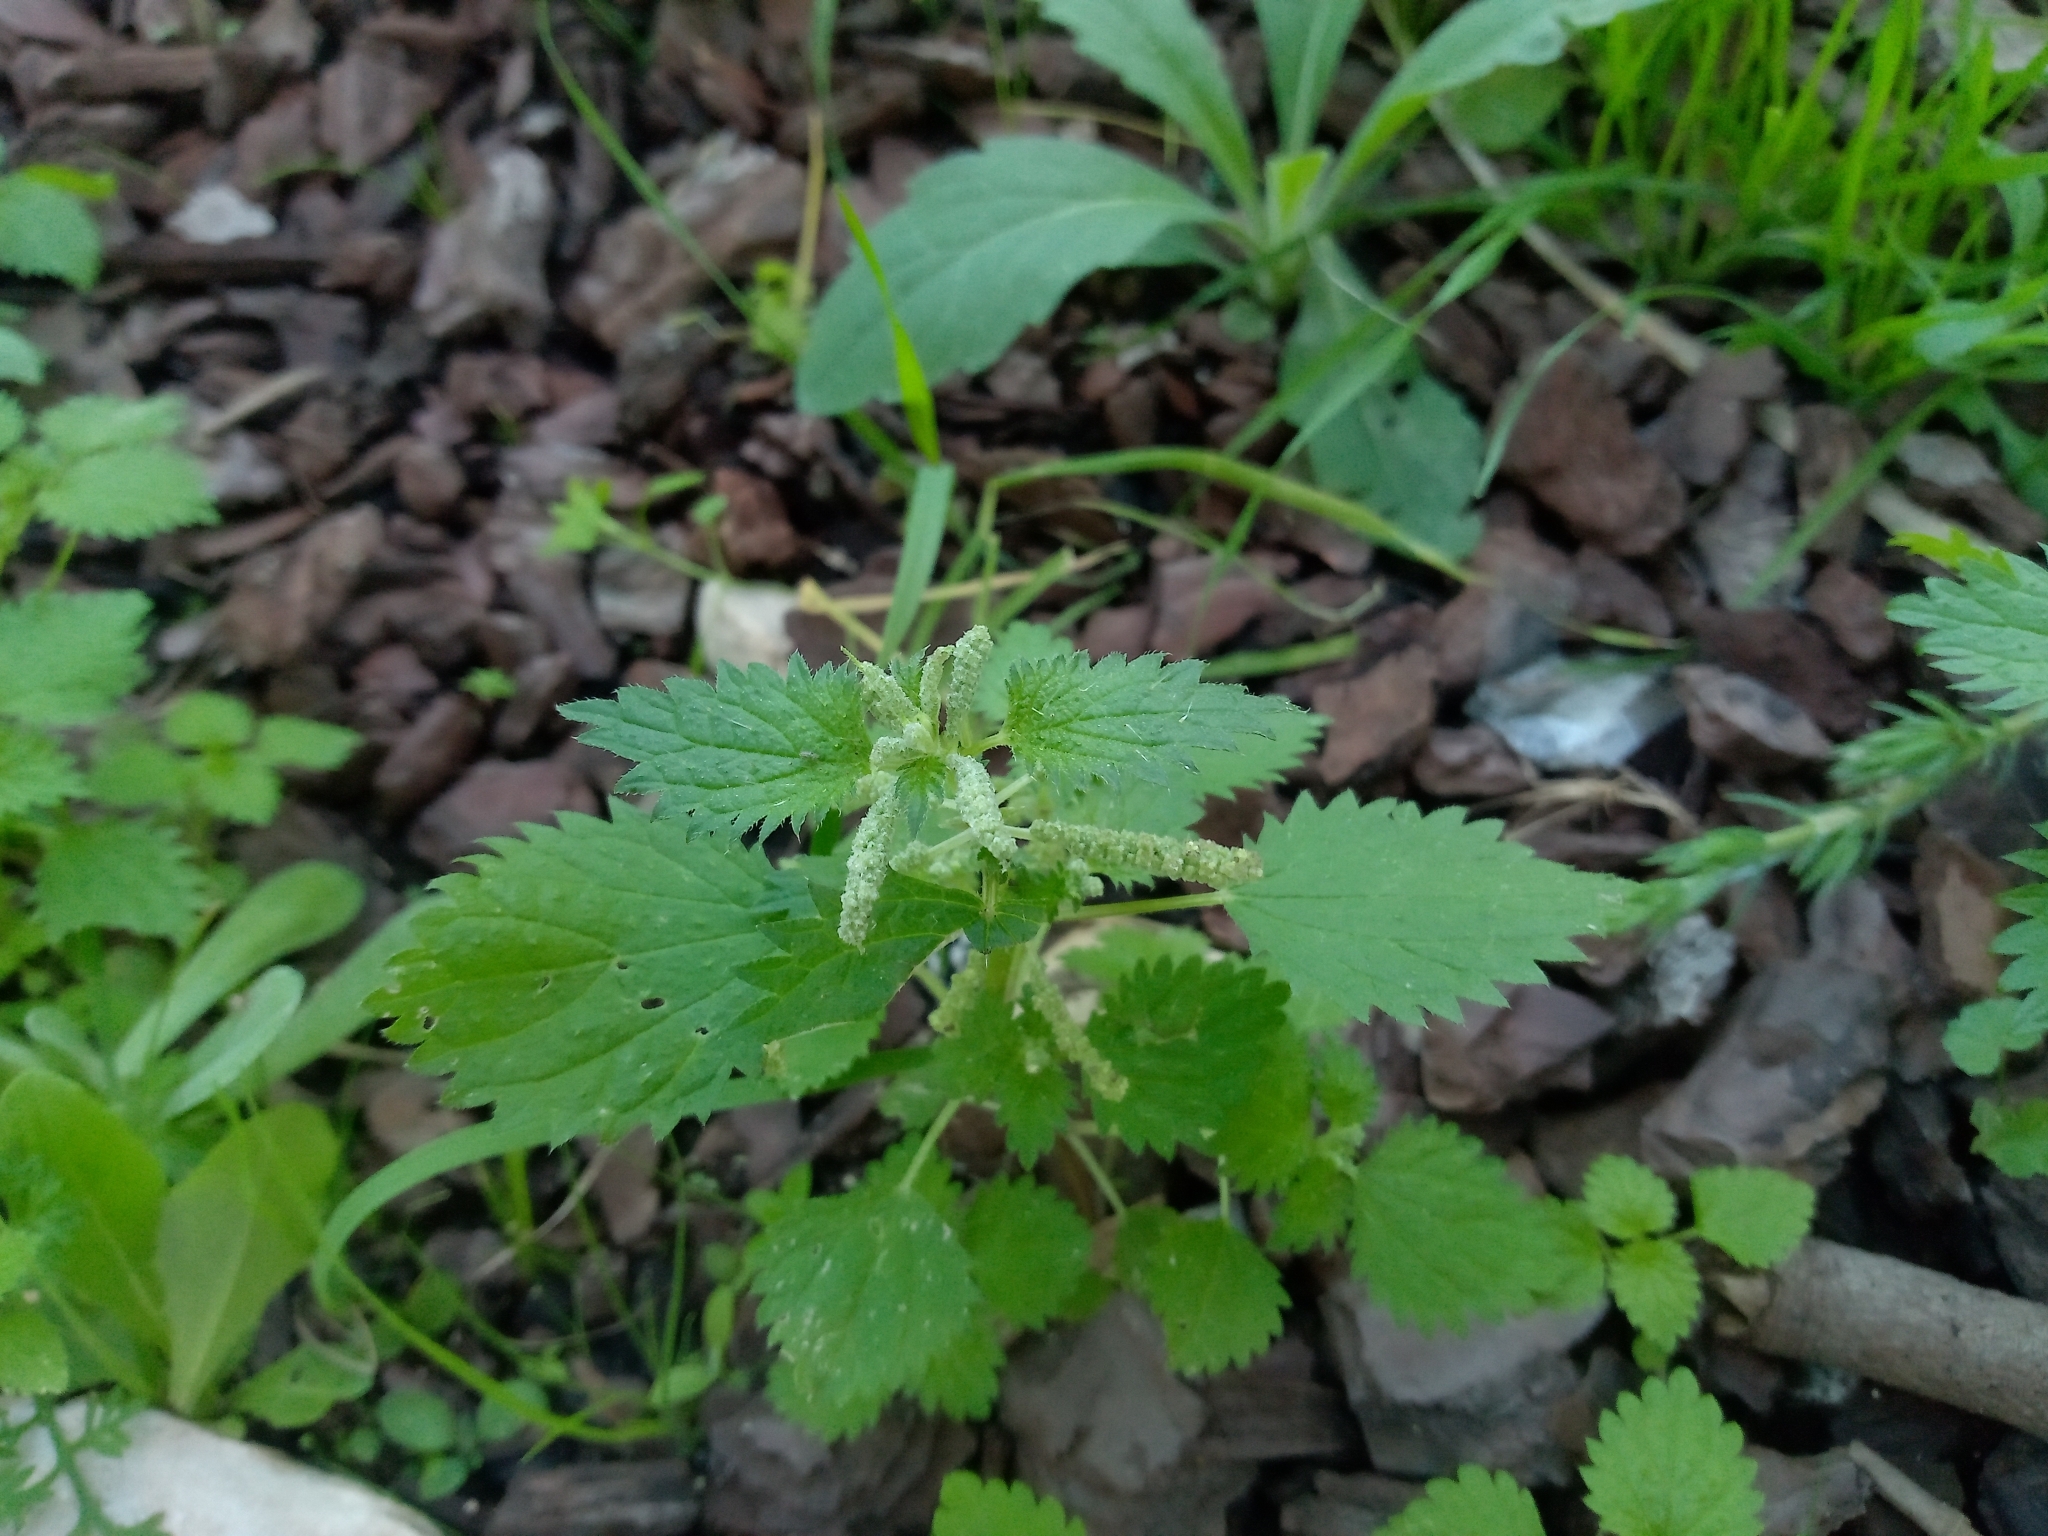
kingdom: Plantae
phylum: Tracheophyta
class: Magnoliopsida
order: Rosales
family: Urticaceae
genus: Urtica
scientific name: Urtica membranacea
